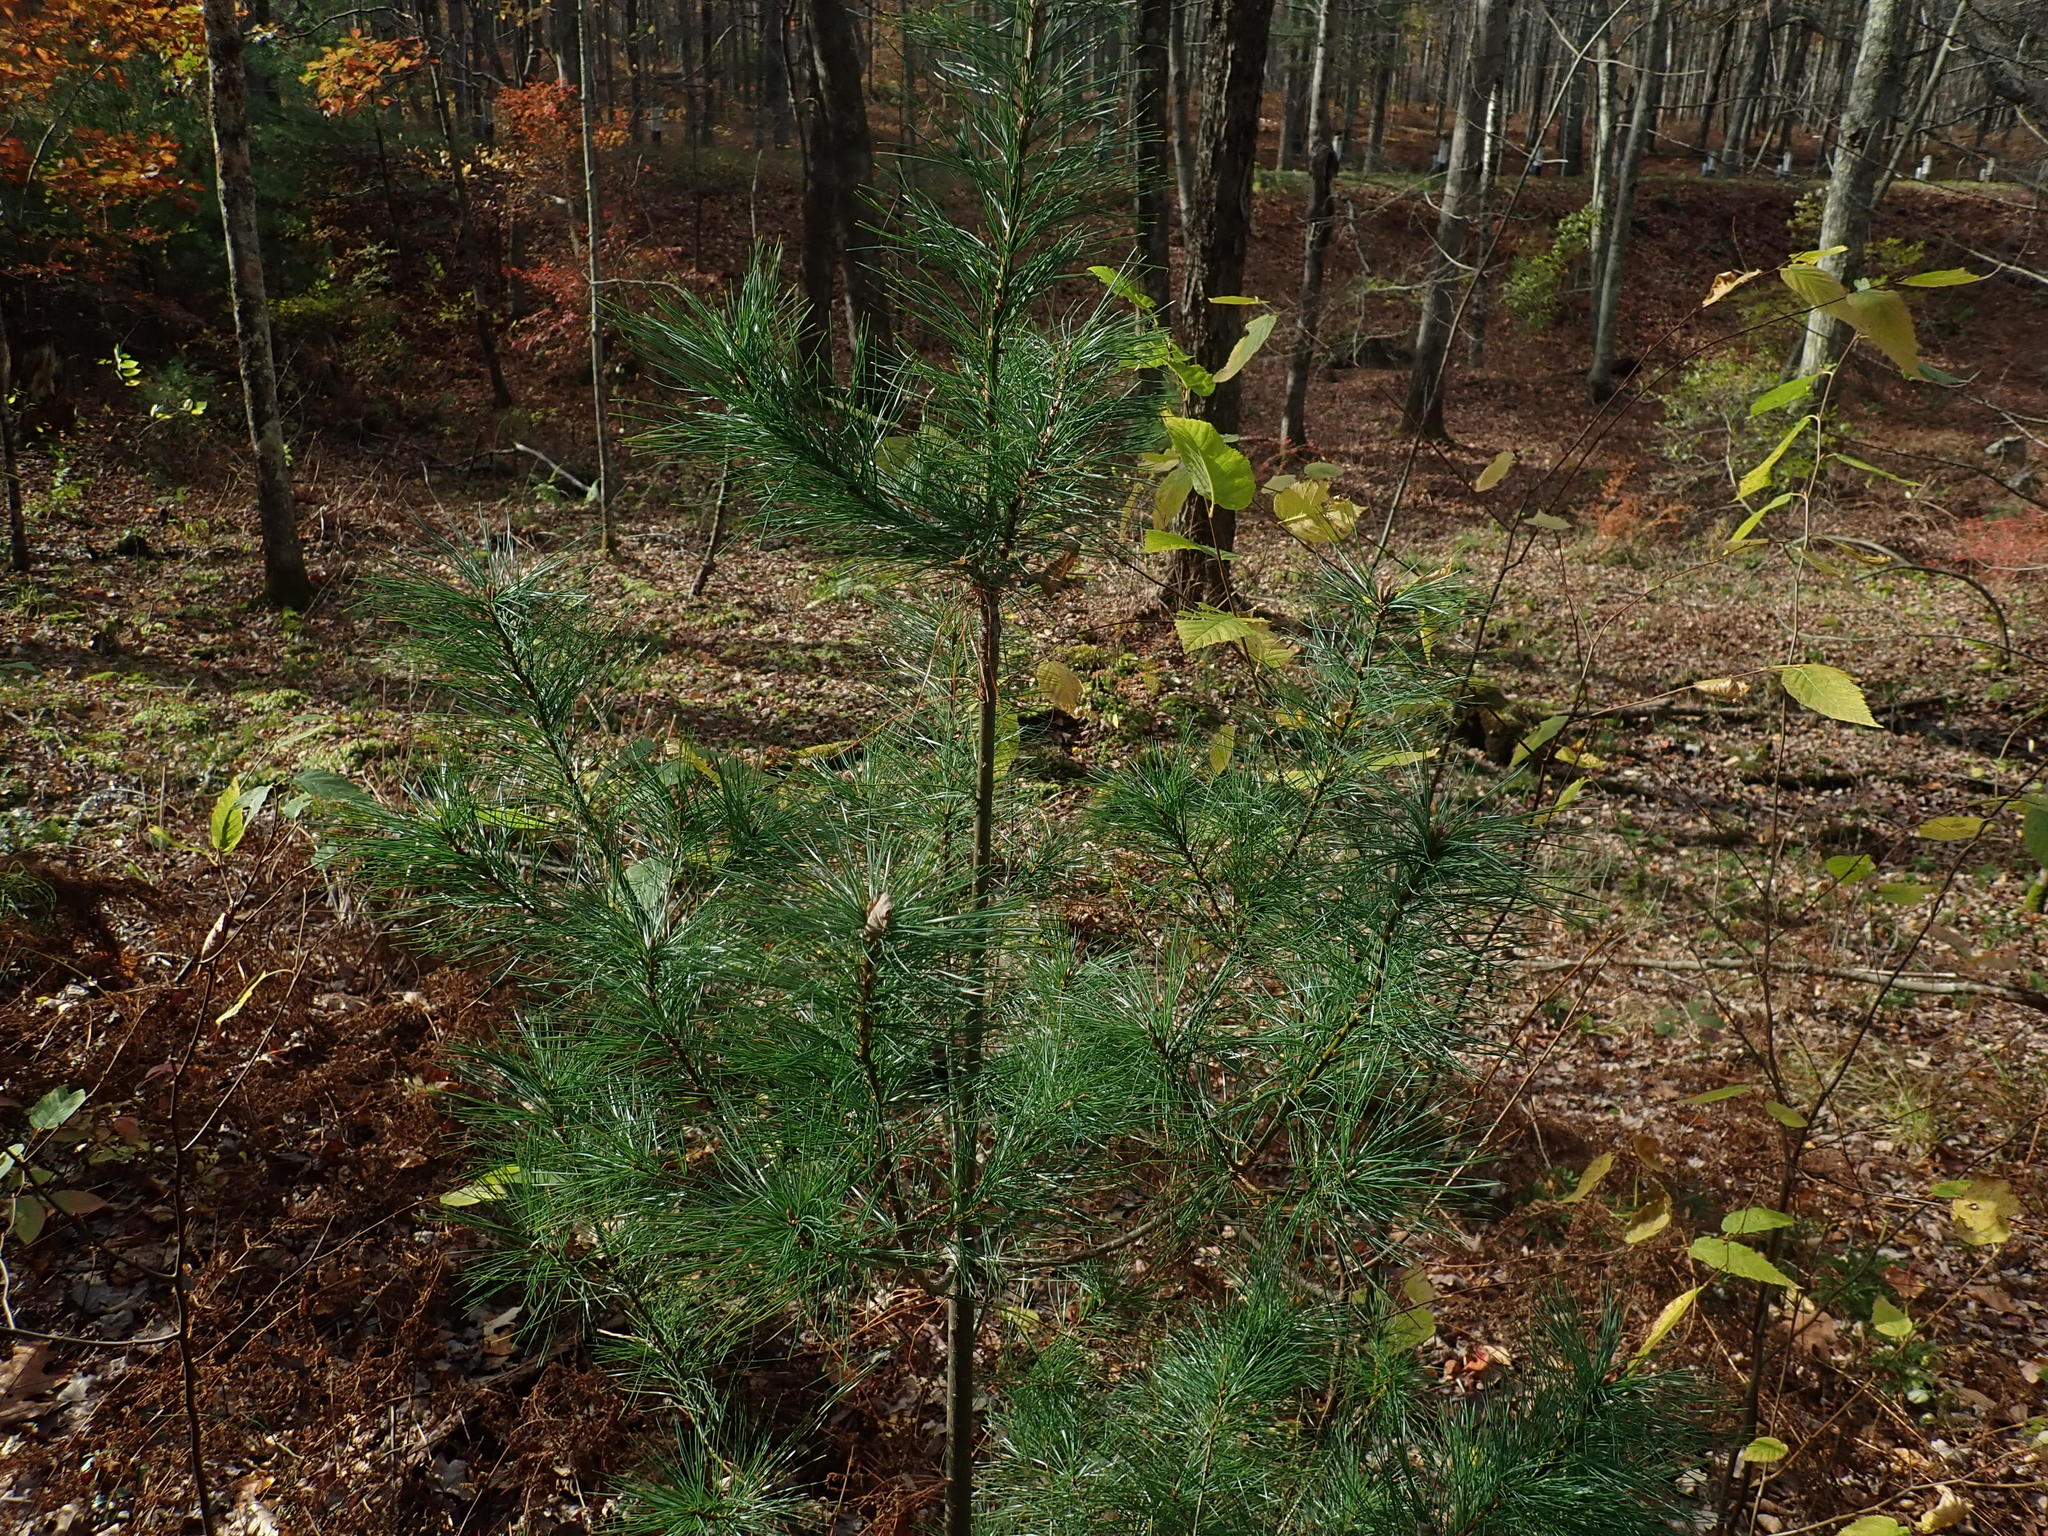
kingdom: Plantae
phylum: Tracheophyta
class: Pinopsida
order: Pinales
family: Pinaceae
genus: Pinus
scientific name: Pinus strobus
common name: Weymouth pine
